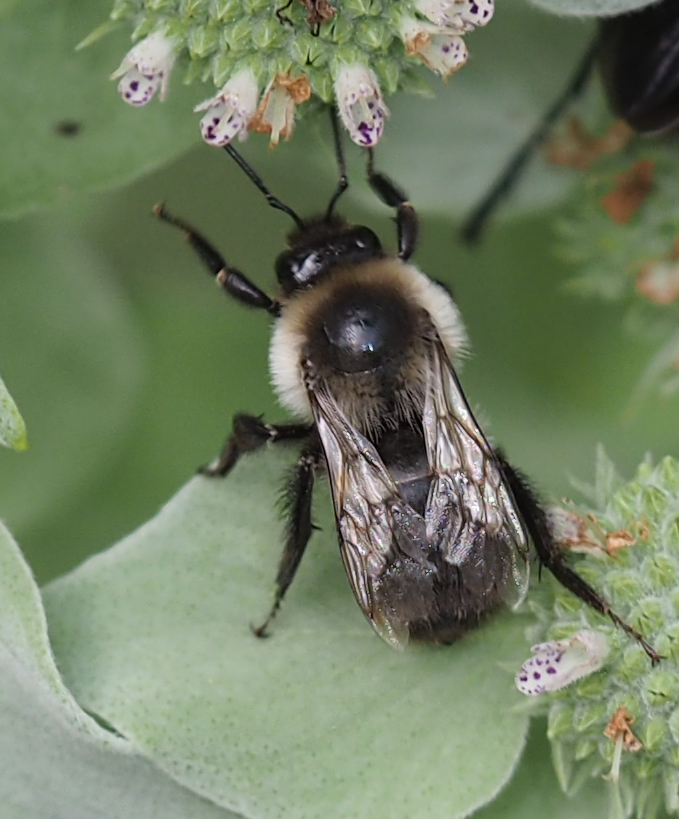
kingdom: Animalia
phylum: Arthropoda
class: Insecta
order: Hymenoptera
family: Apidae
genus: Bombus
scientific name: Bombus impatiens
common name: Common eastern bumble bee
